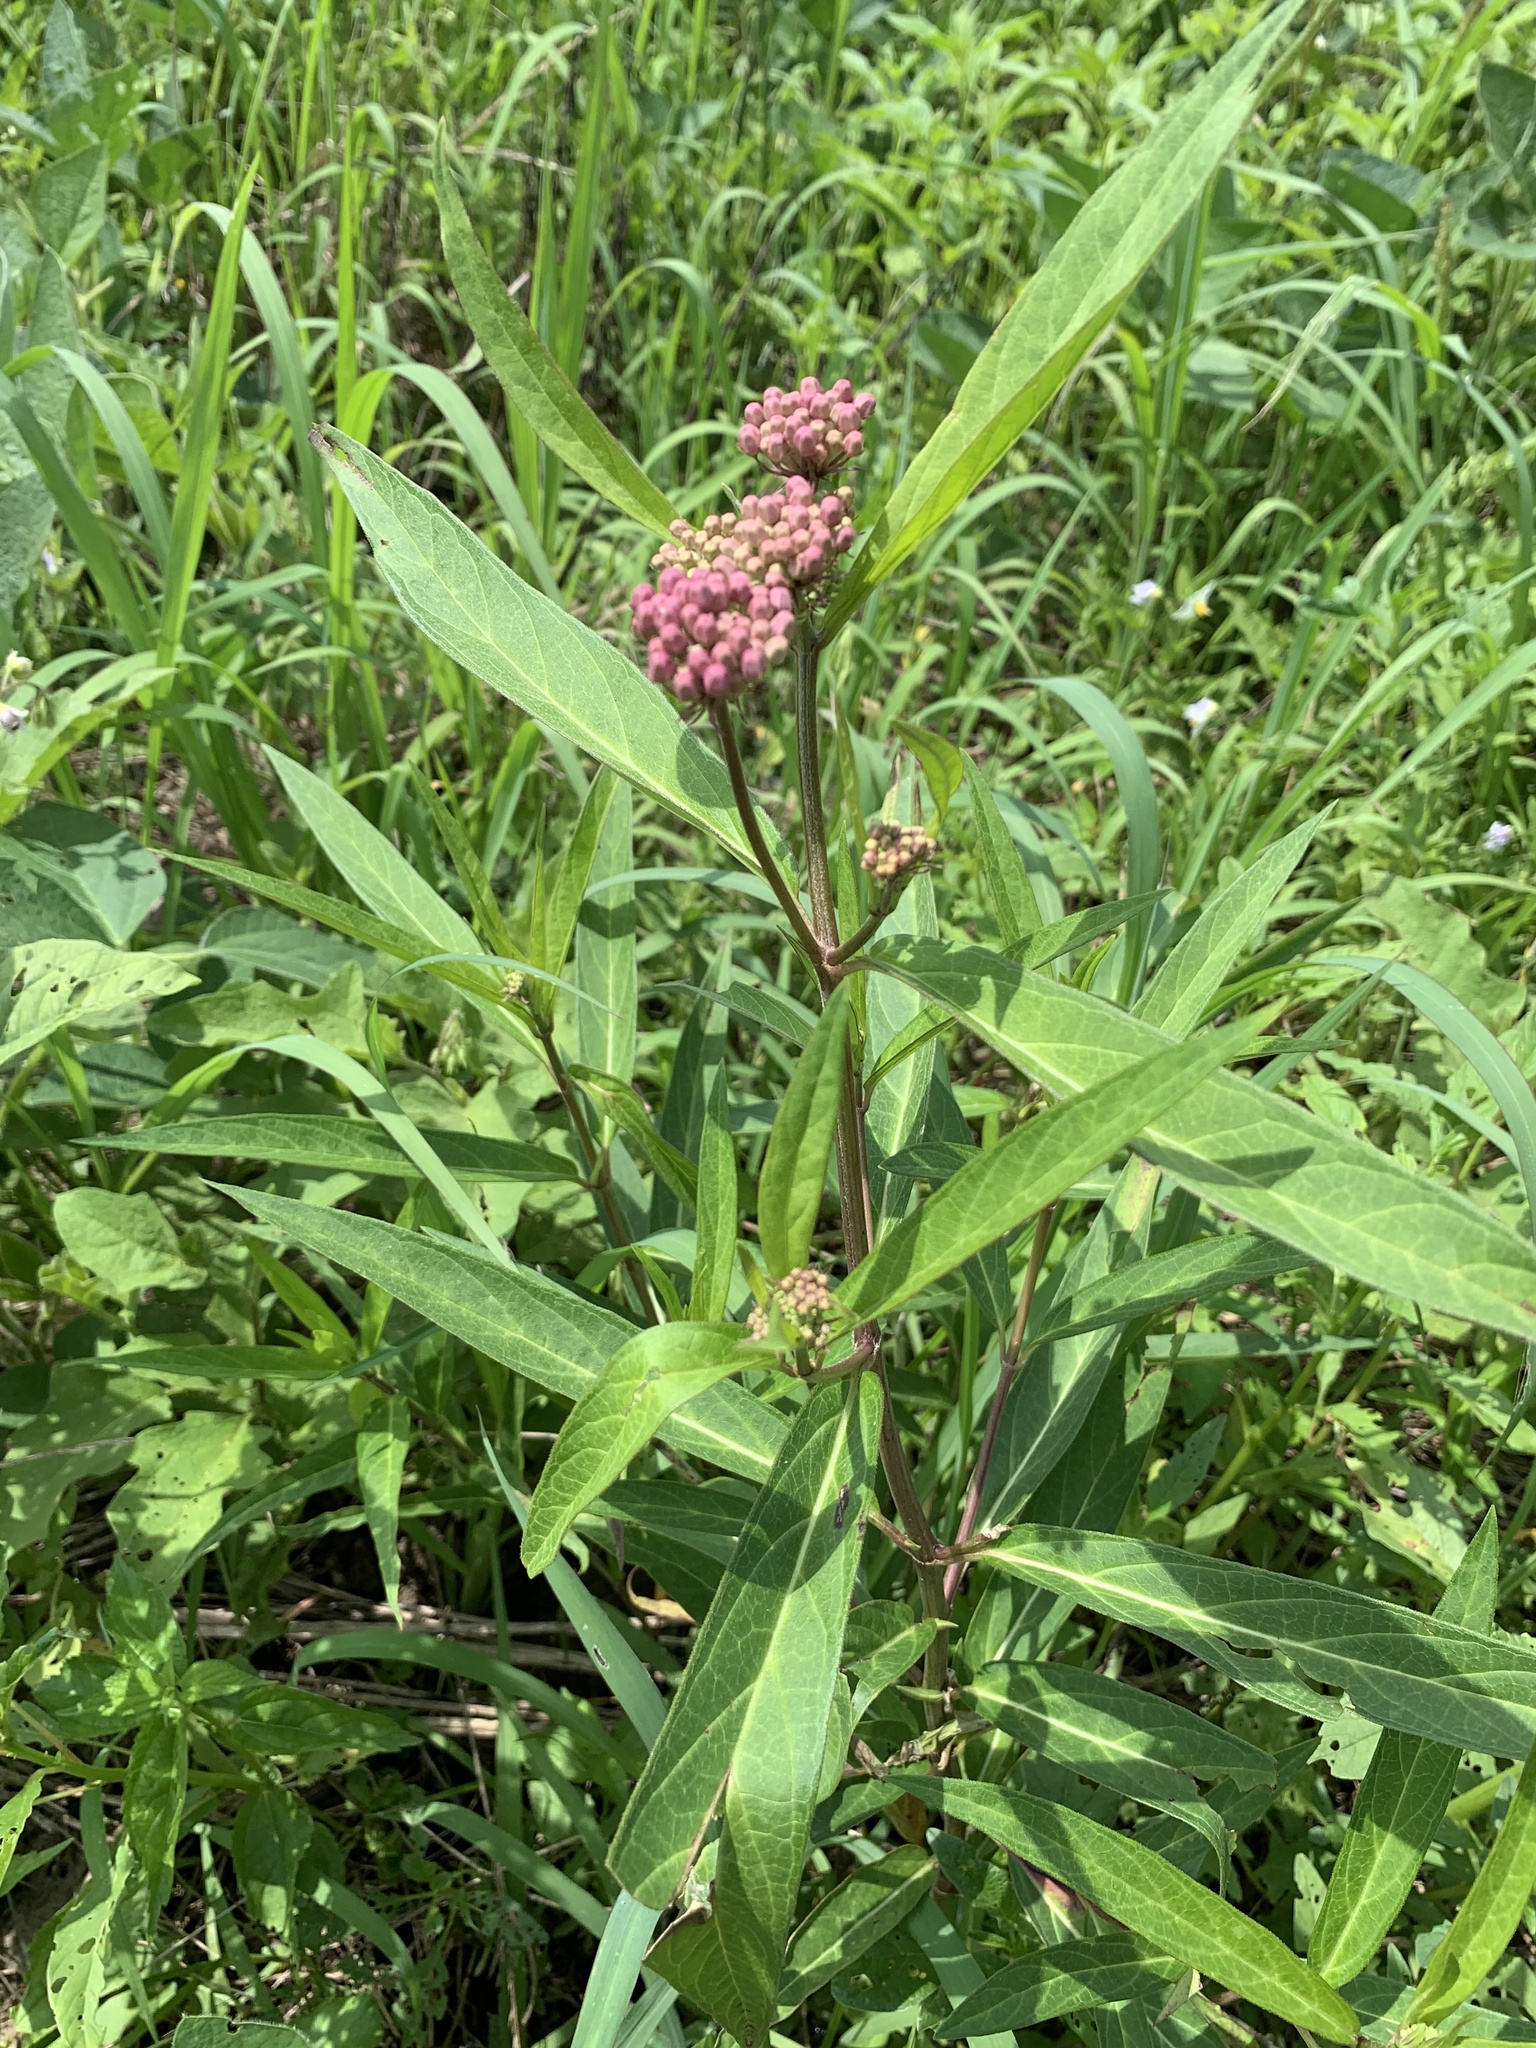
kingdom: Plantae
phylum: Tracheophyta
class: Magnoliopsida
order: Gentianales
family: Apocynaceae
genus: Asclepias
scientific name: Asclepias incarnata
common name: Swamp milkweed
